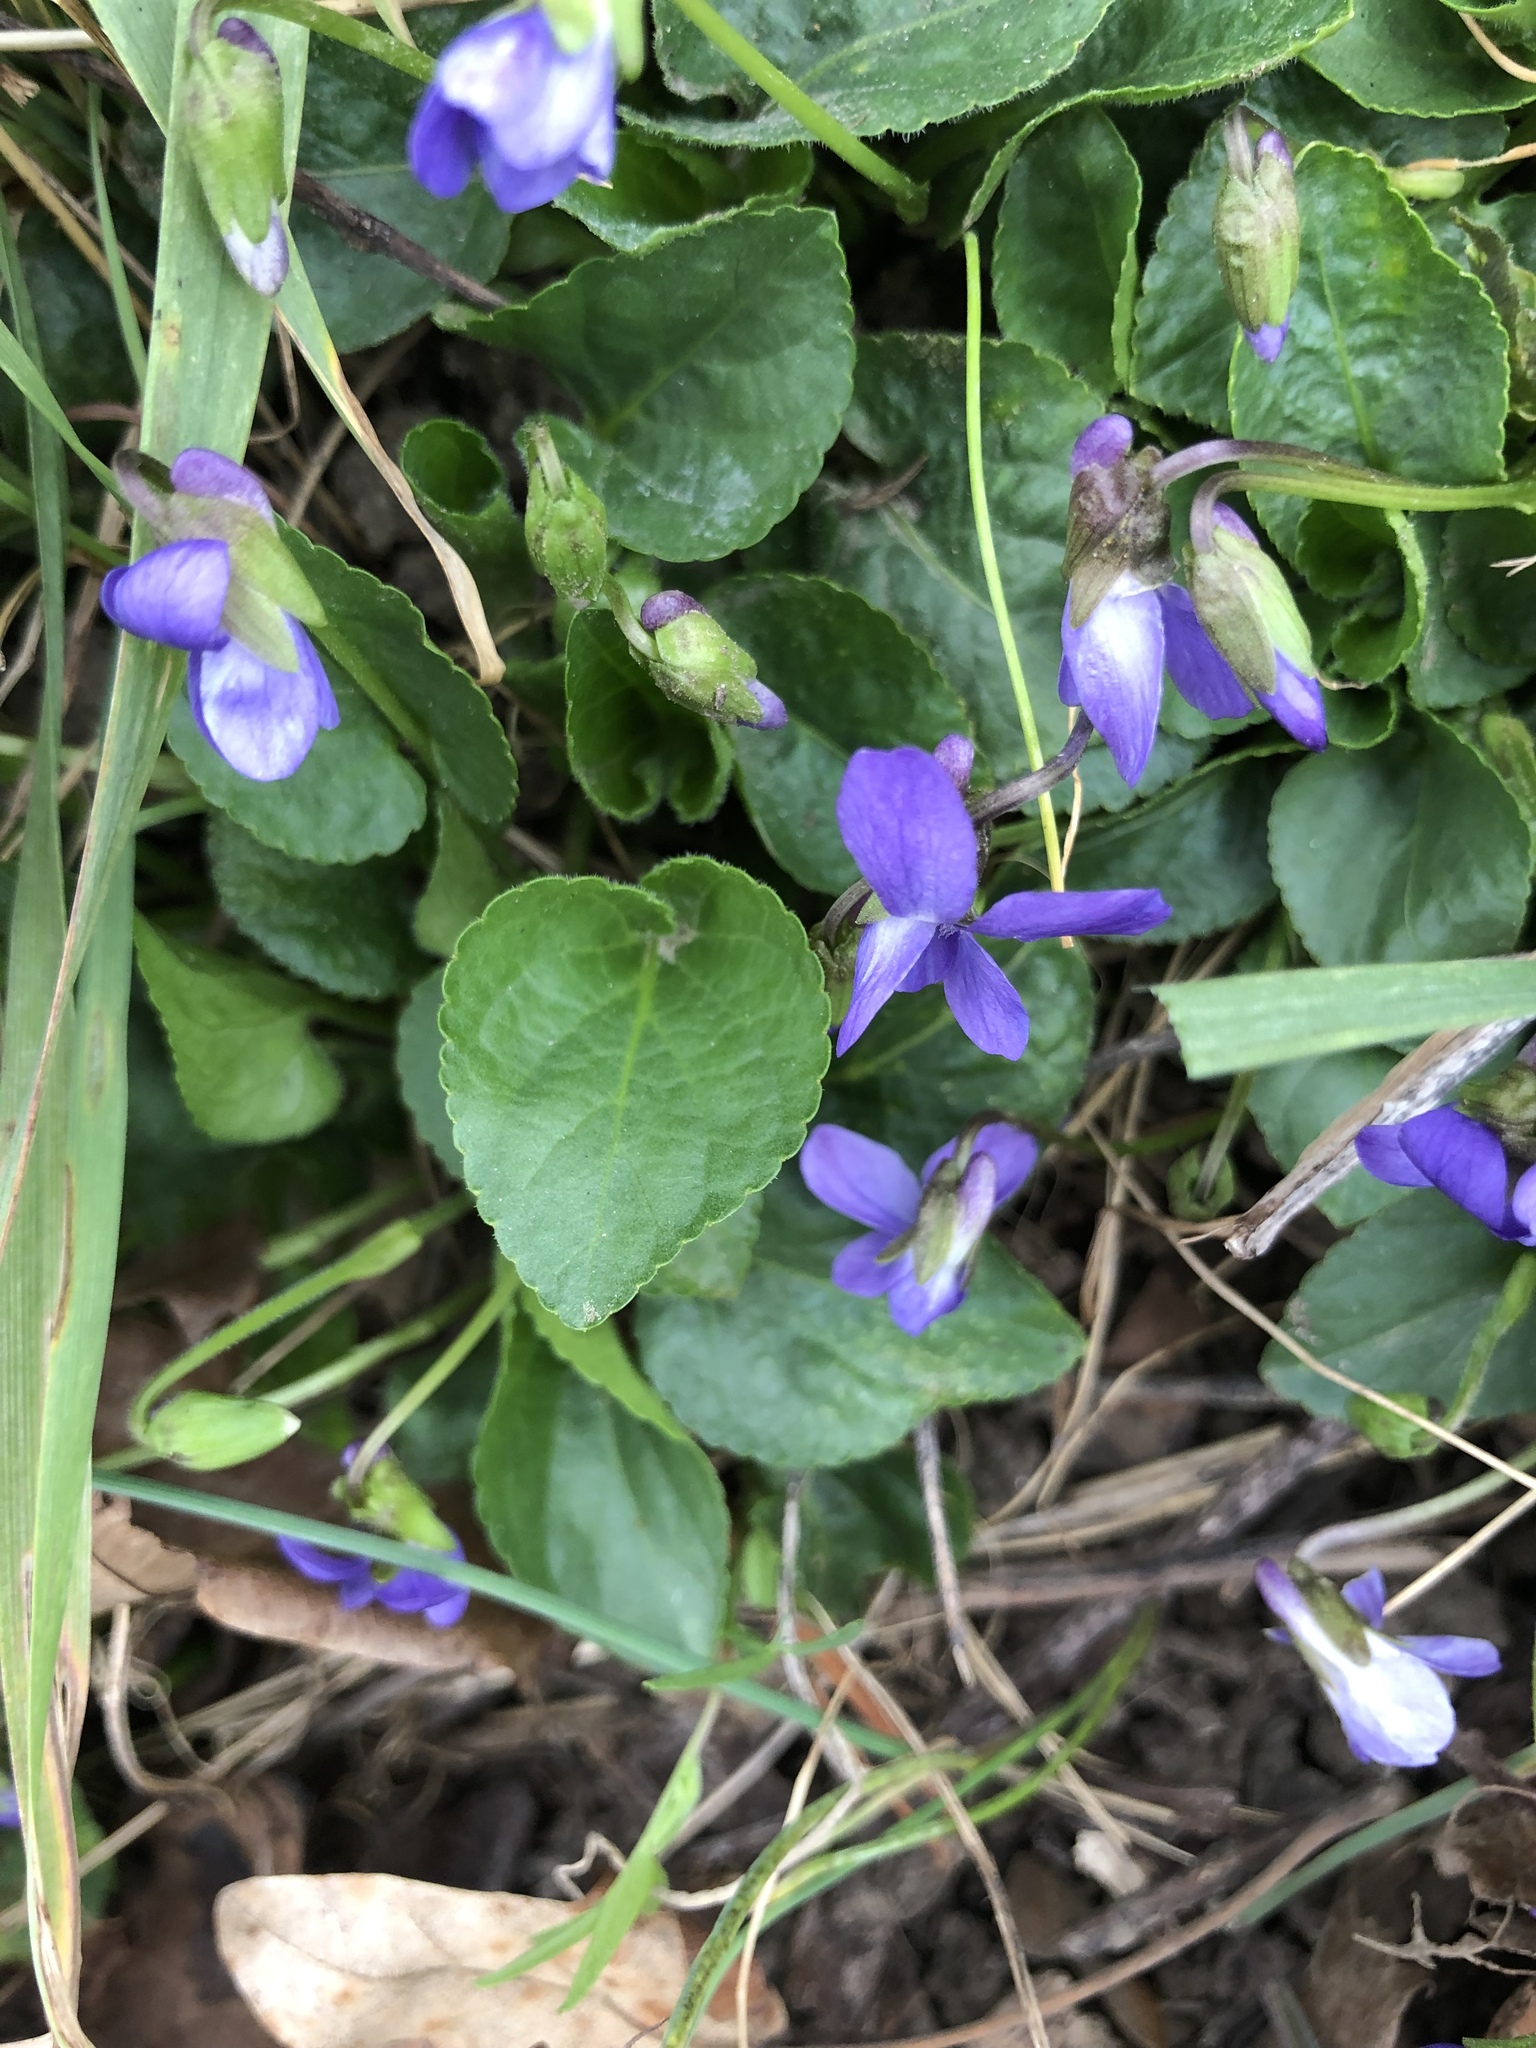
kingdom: Plantae
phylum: Tracheophyta
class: Magnoliopsida
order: Malpighiales
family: Violaceae
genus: Viola
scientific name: Viola hirta
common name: Hairy violet
